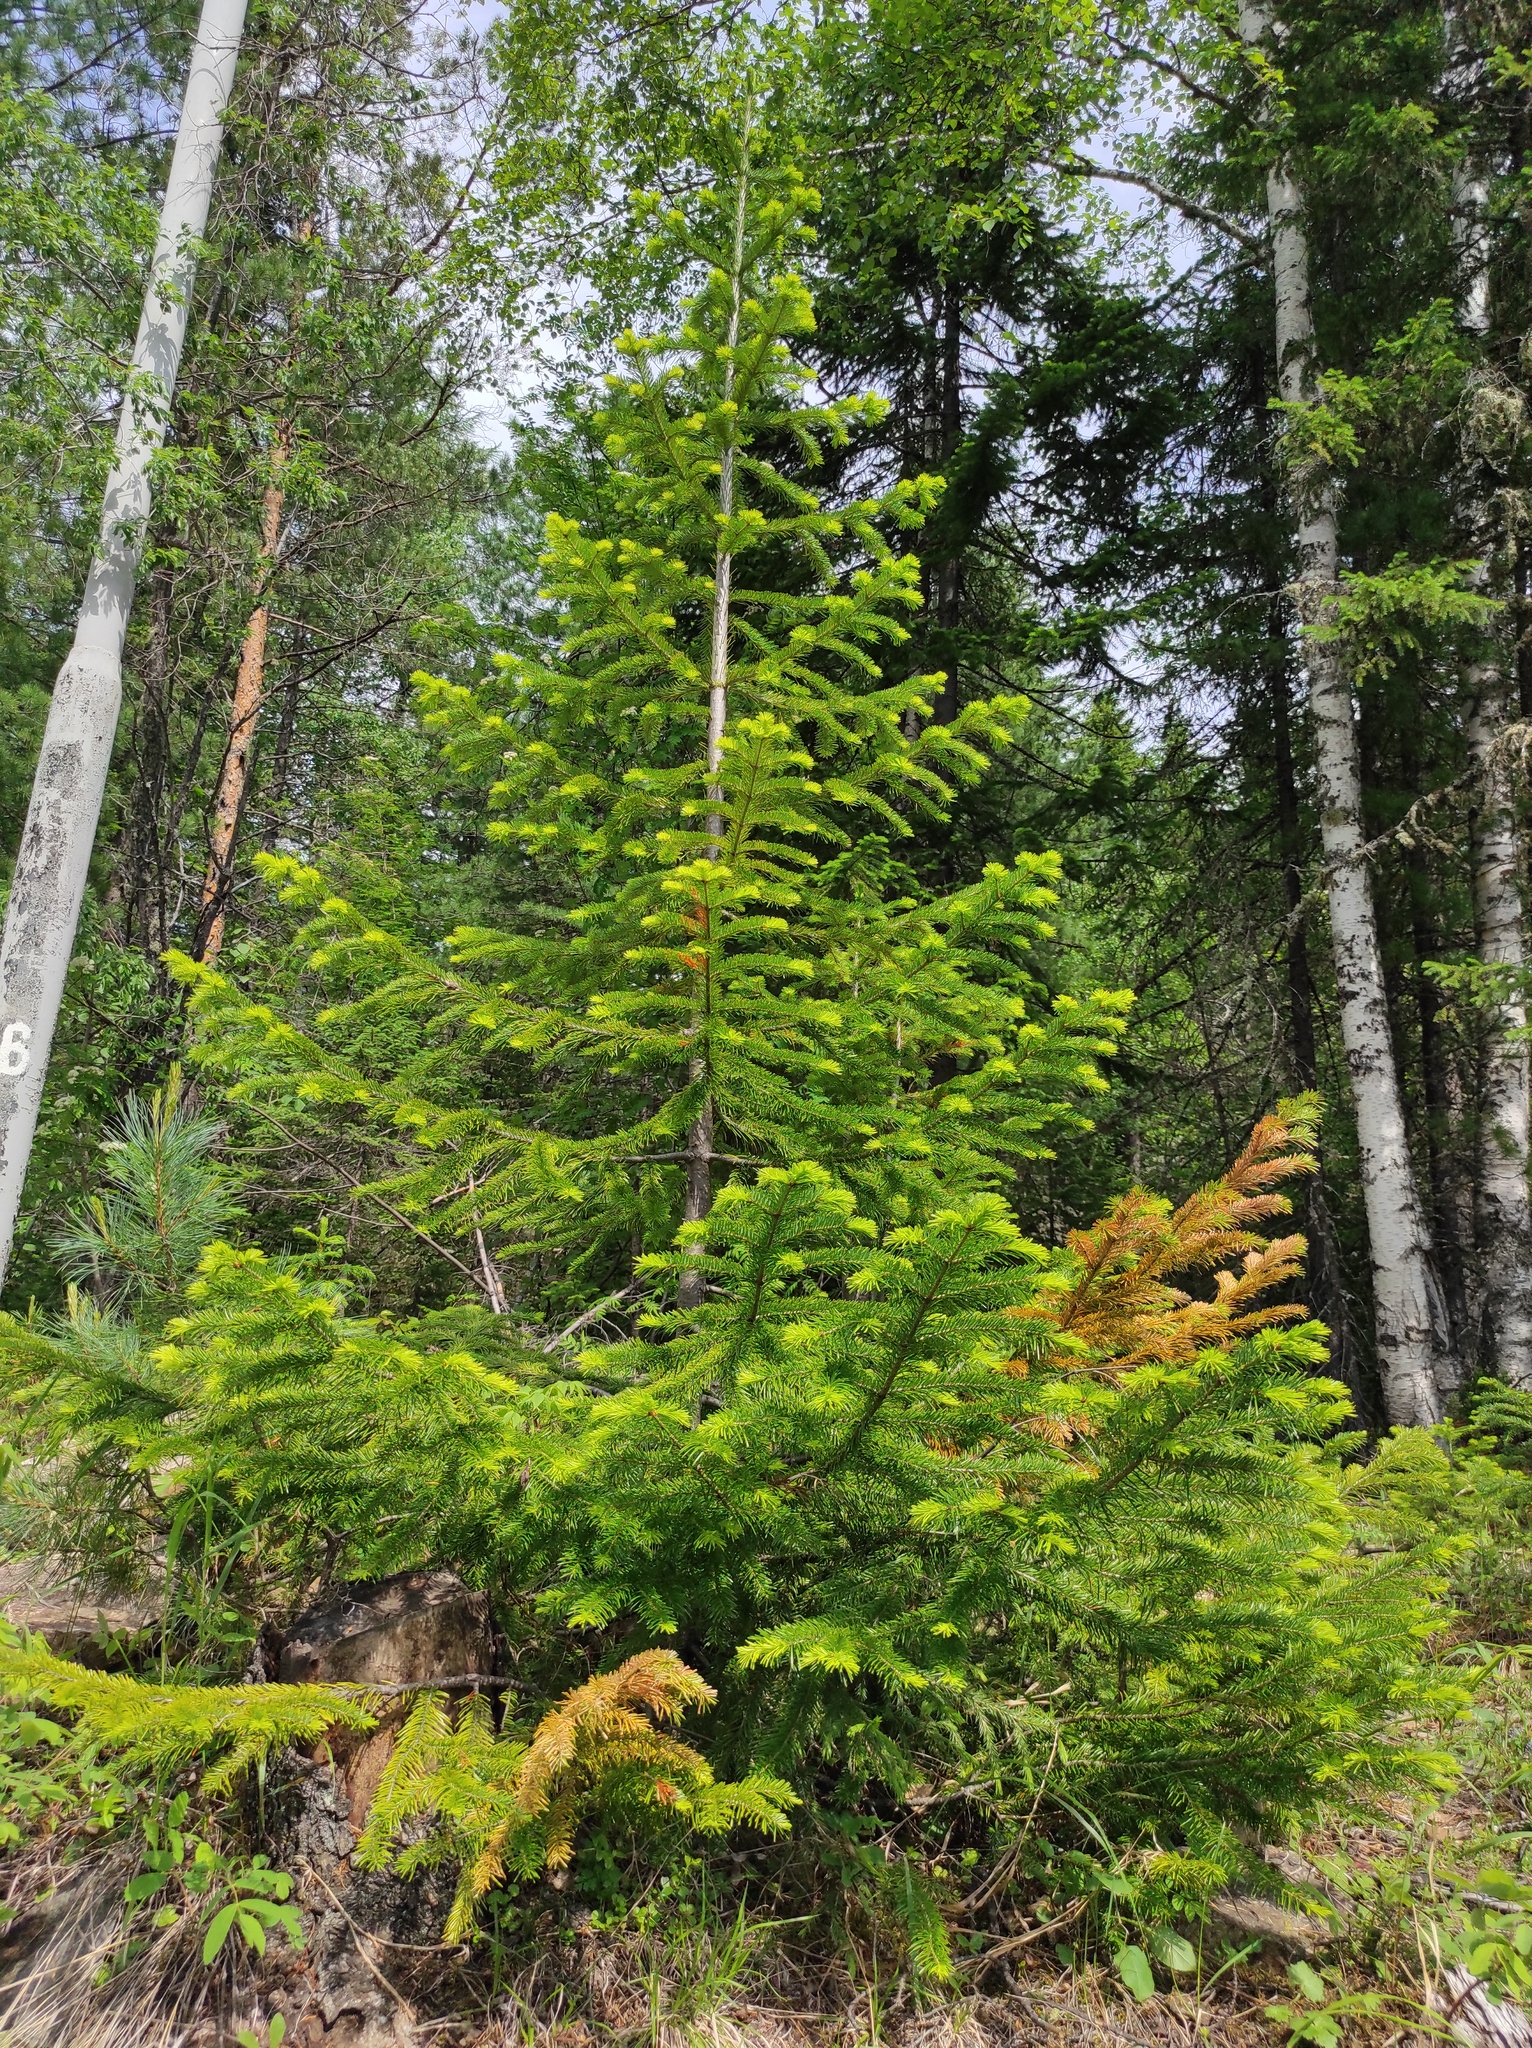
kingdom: Plantae
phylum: Tracheophyta
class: Pinopsida
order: Pinales
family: Pinaceae
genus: Pinus
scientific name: Pinus sylvestris
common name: Scots pine
